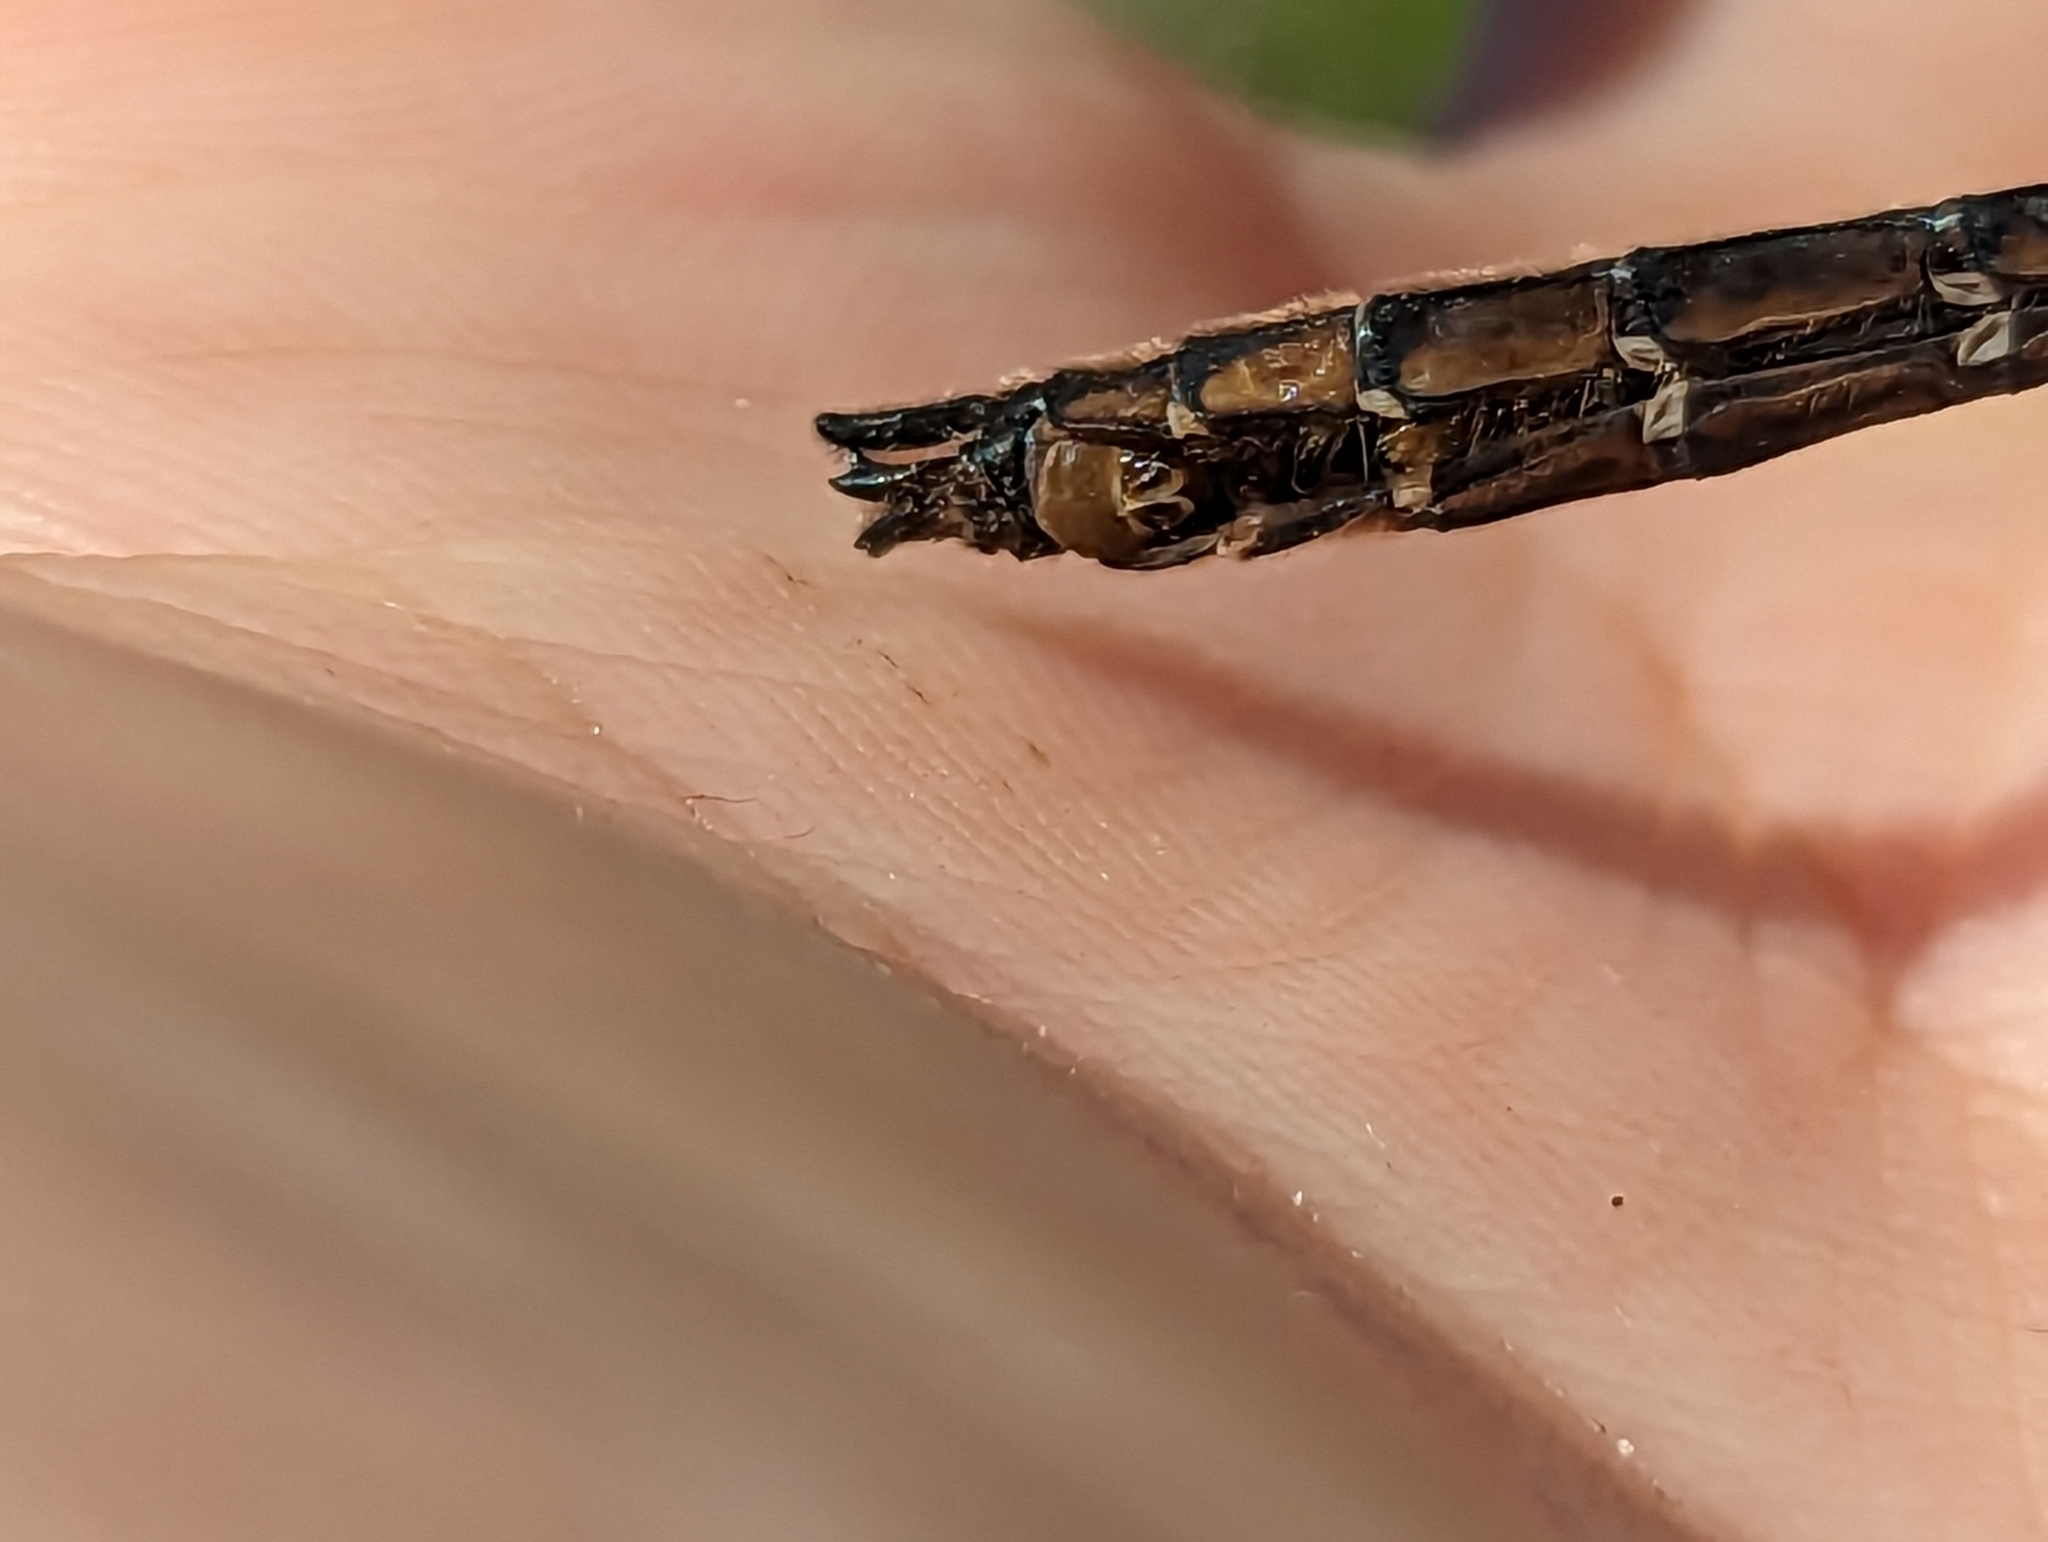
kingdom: Animalia
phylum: Arthropoda
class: Insecta
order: Odonata
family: Corduliidae
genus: Cordulia
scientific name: Cordulia shurtleffii
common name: American emerald
